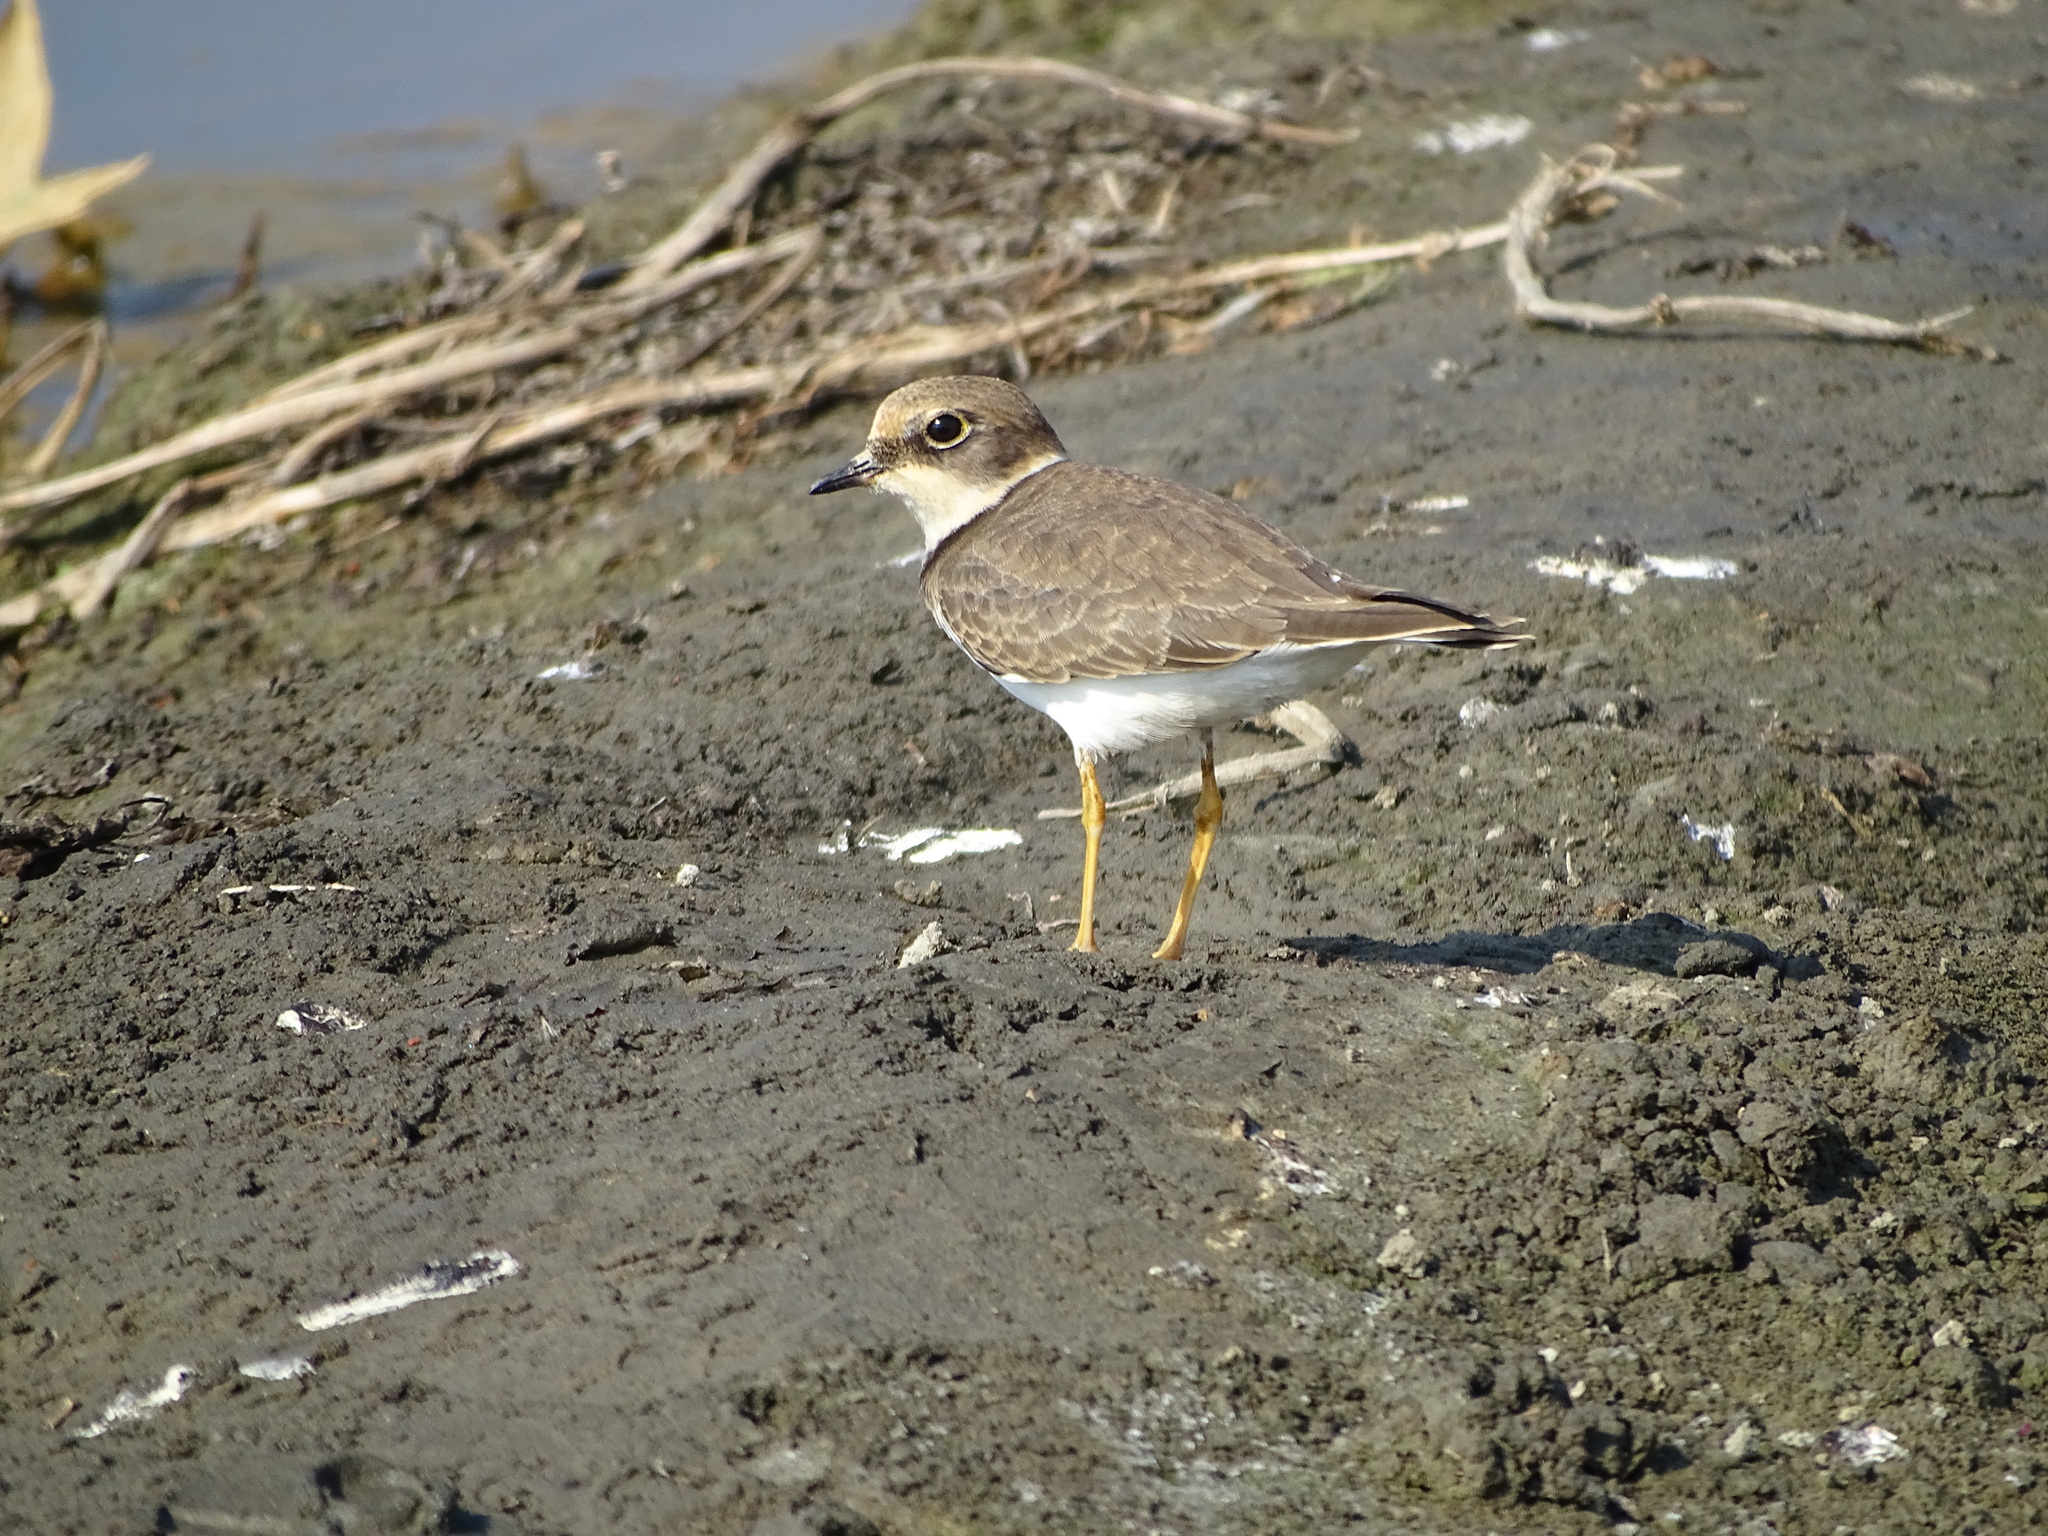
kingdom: Animalia
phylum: Chordata
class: Aves
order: Charadriiformes
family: Charadriidae
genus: Charadrius
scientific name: Charadrius dubius
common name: Little ringed plover
